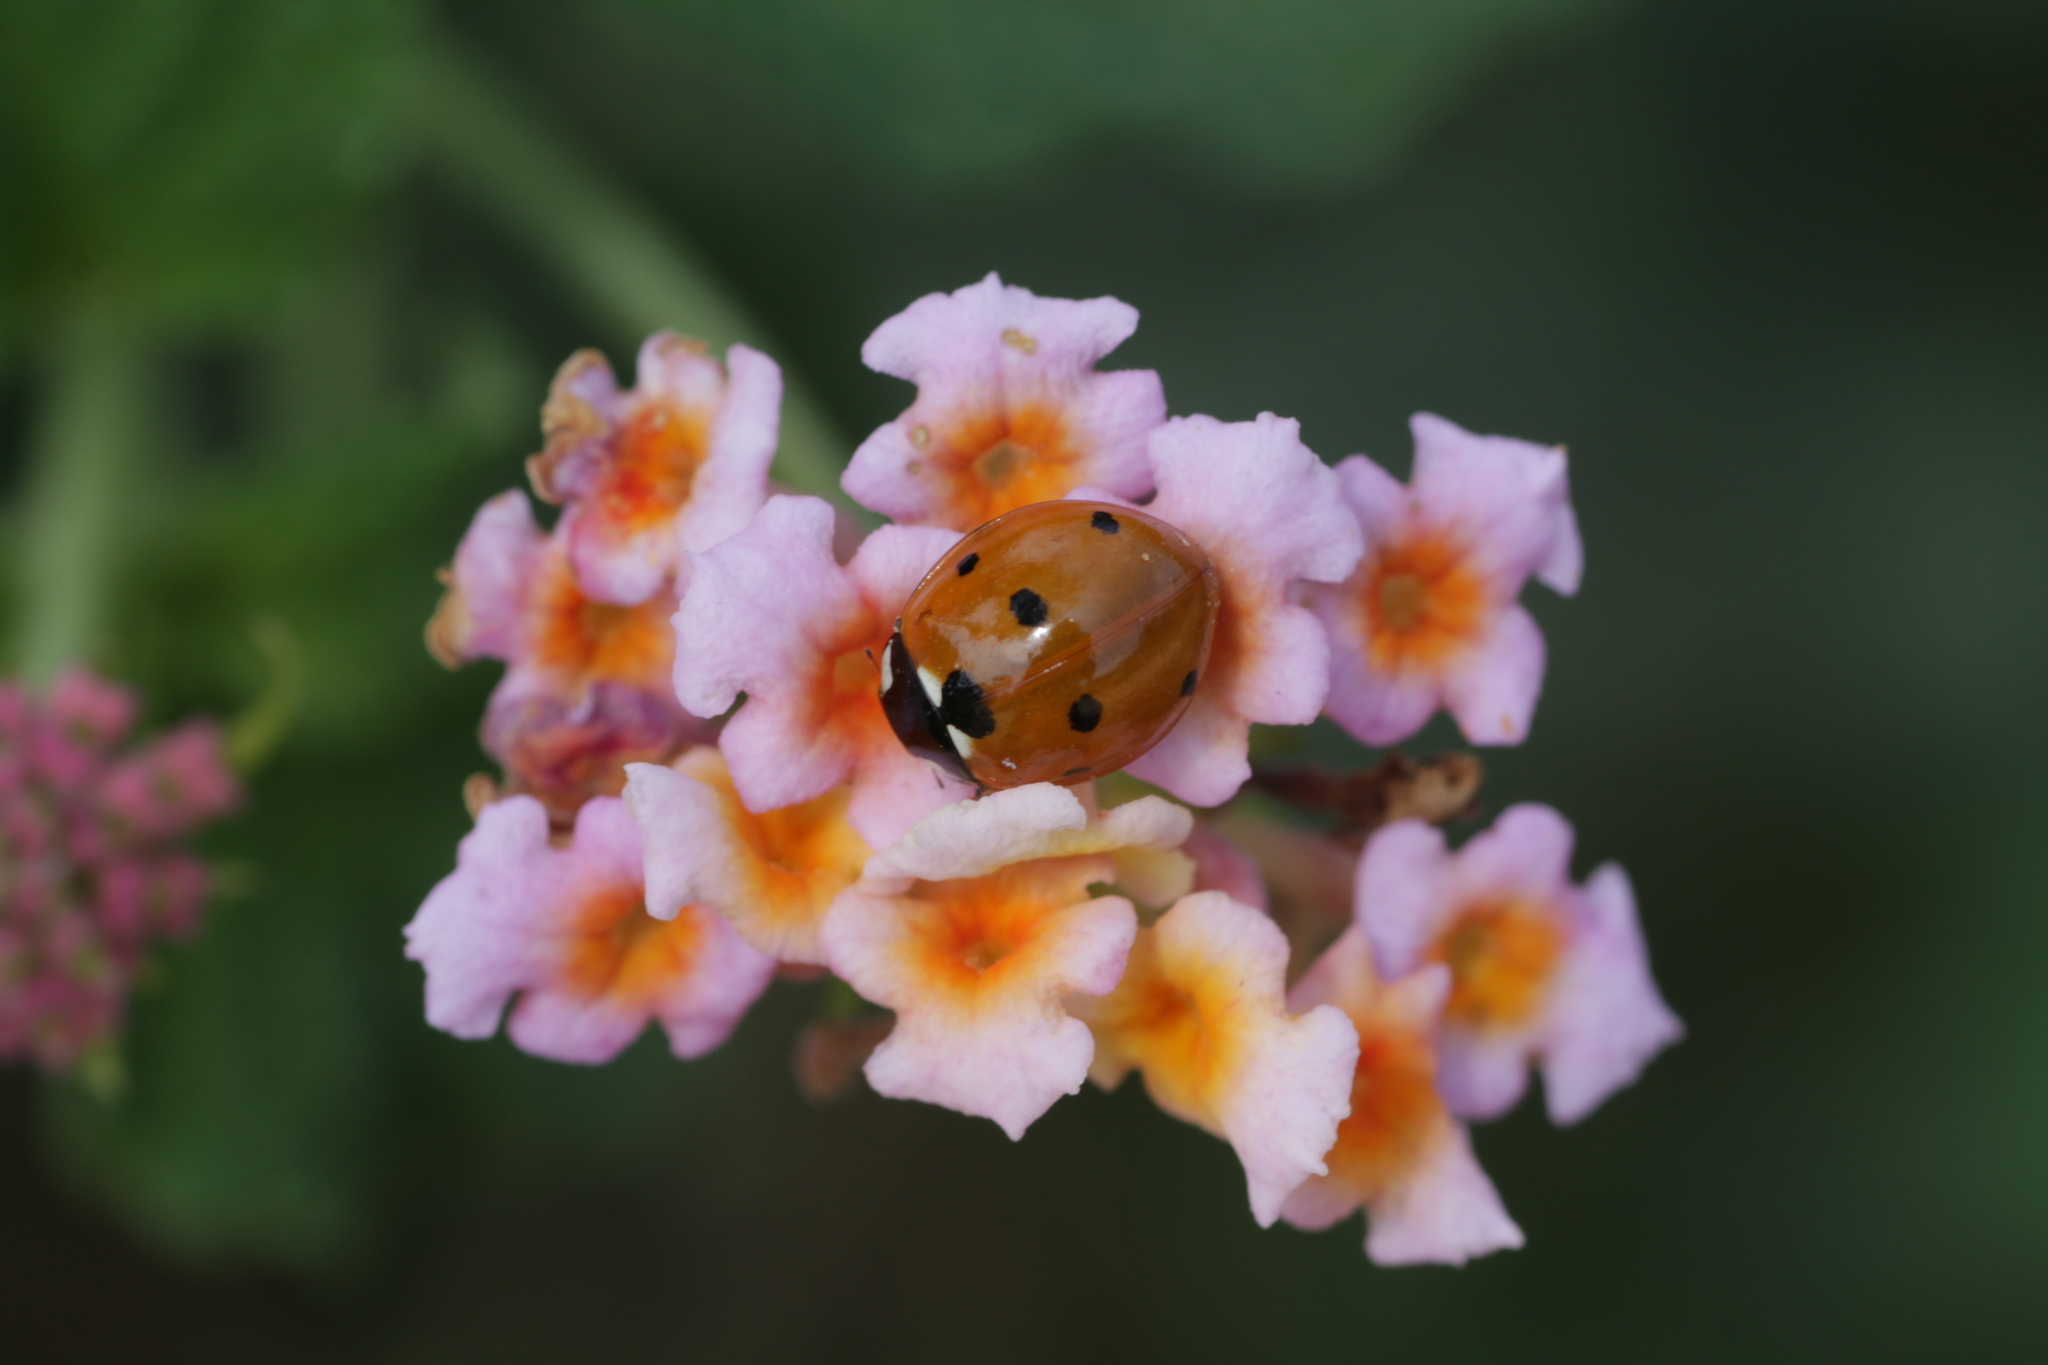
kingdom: Animalia
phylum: Arthropoda
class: Insecta
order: Coleoptera
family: Coccinellidae
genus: Coccinella
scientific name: Coccinella septempunctata
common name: Sevenspotted lady beetle
